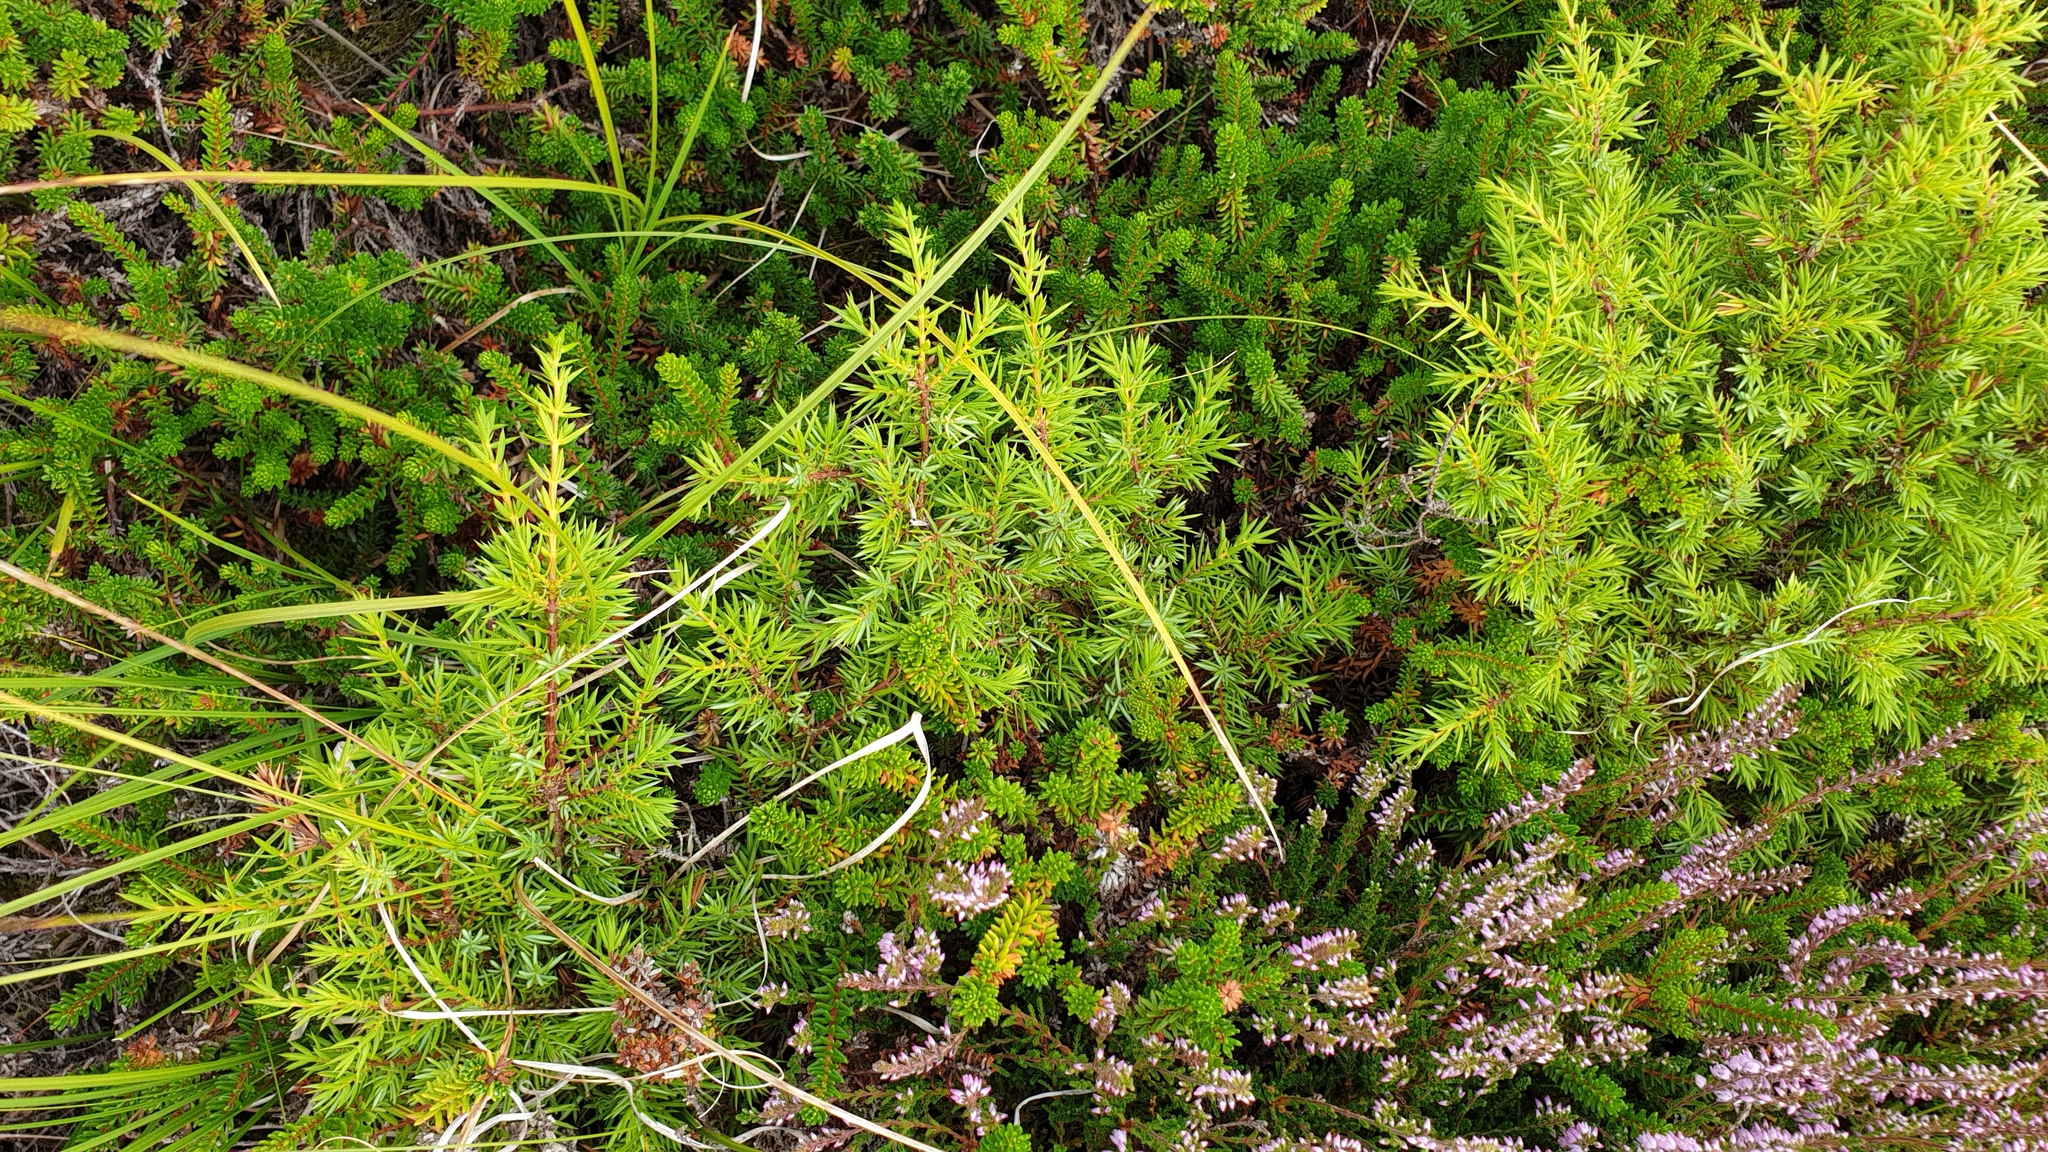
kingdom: Plantae
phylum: Tracheophyta
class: Pinopsida
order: Pinales
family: Cupressaceae
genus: Juniperus
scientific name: Juniperus communis
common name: Common juniper
